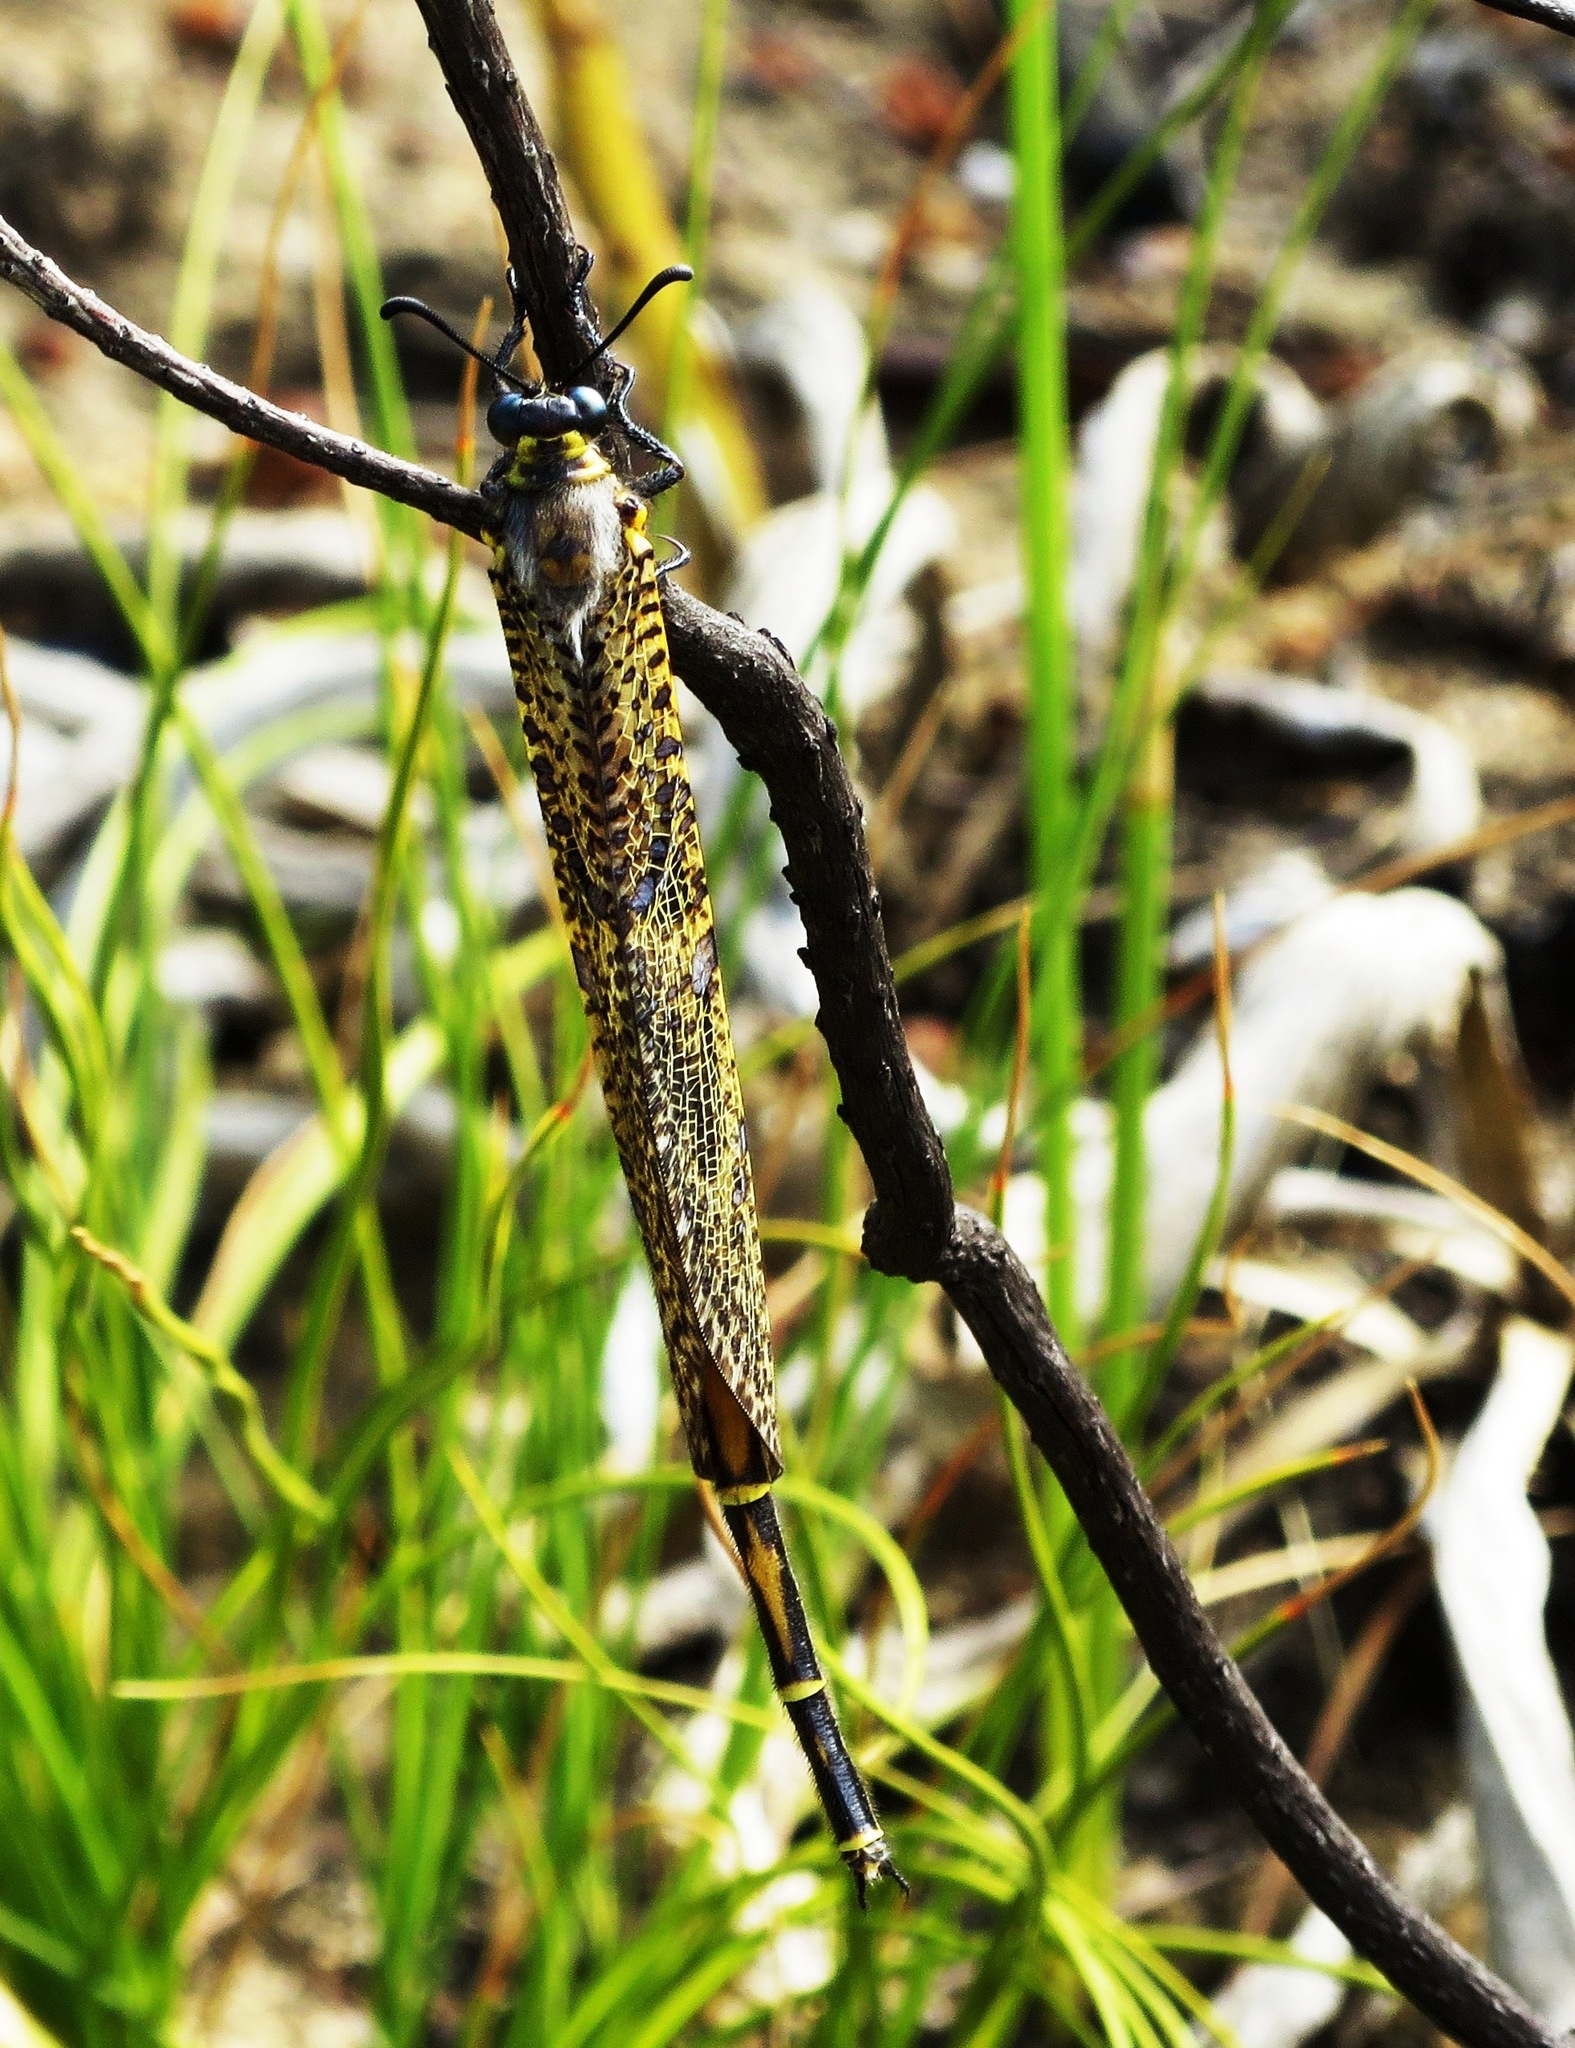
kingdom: Animalia
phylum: Arthropoda
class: Insecta
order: Neuroptera
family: Myrmeleontidae
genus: Palpares
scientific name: Palpares speciosus
